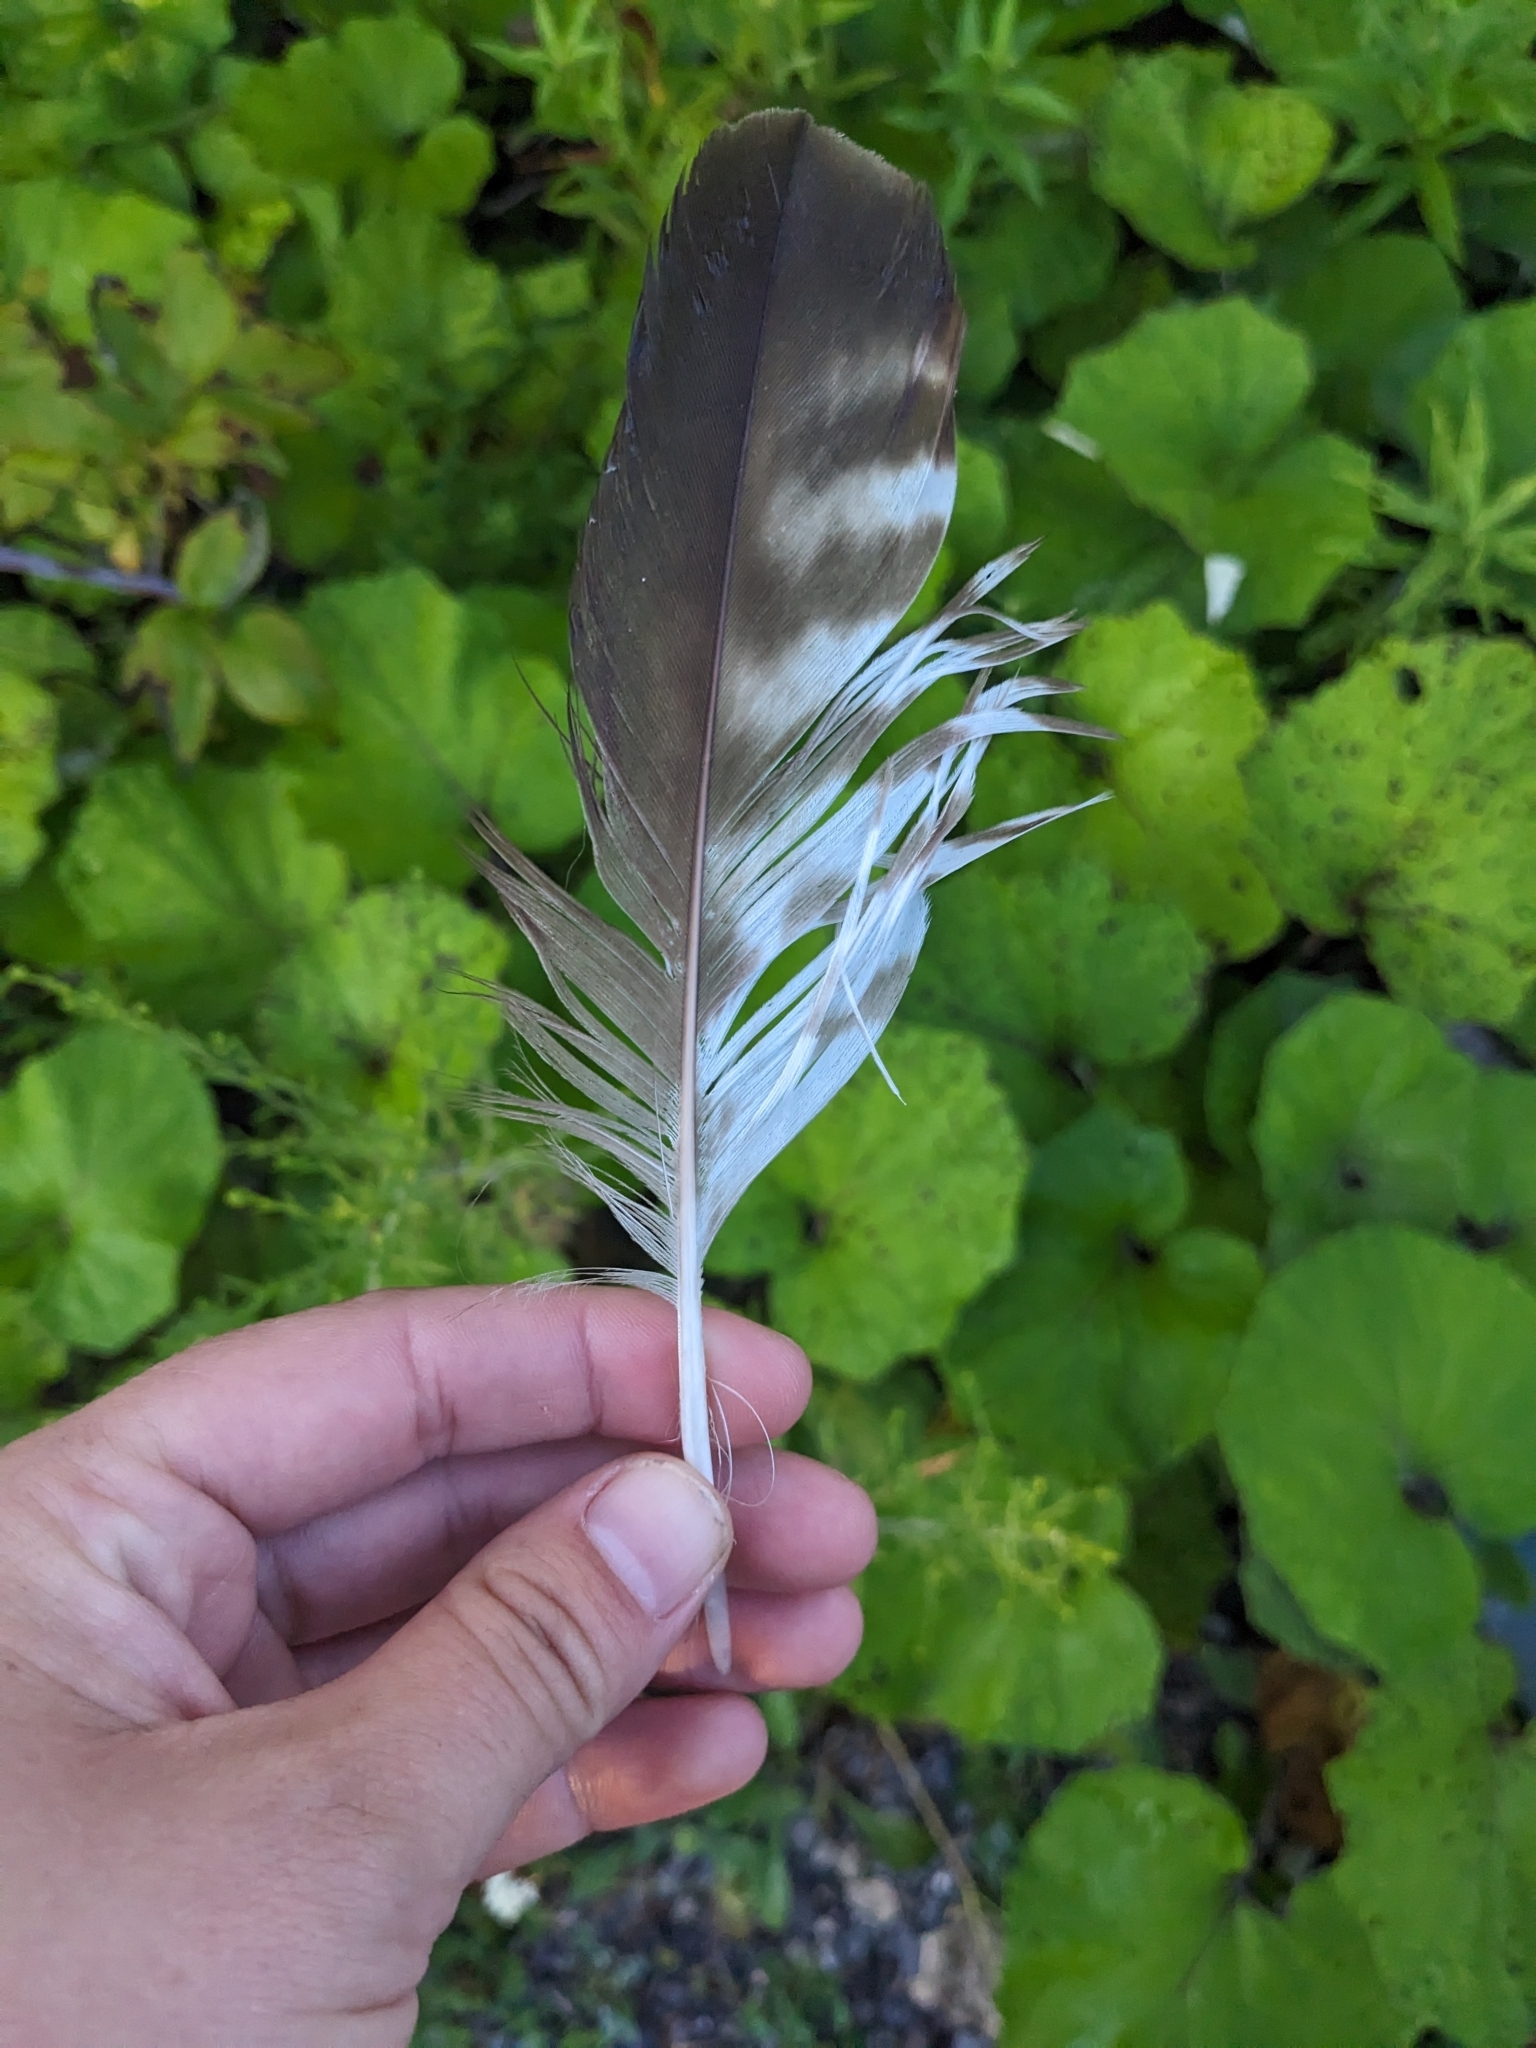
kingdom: Animalia
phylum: Chordata
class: Aves
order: Accipitriformes
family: Accipitridae
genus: Buteo
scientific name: Buteo jamaicensis
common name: Red-tailed hawk
